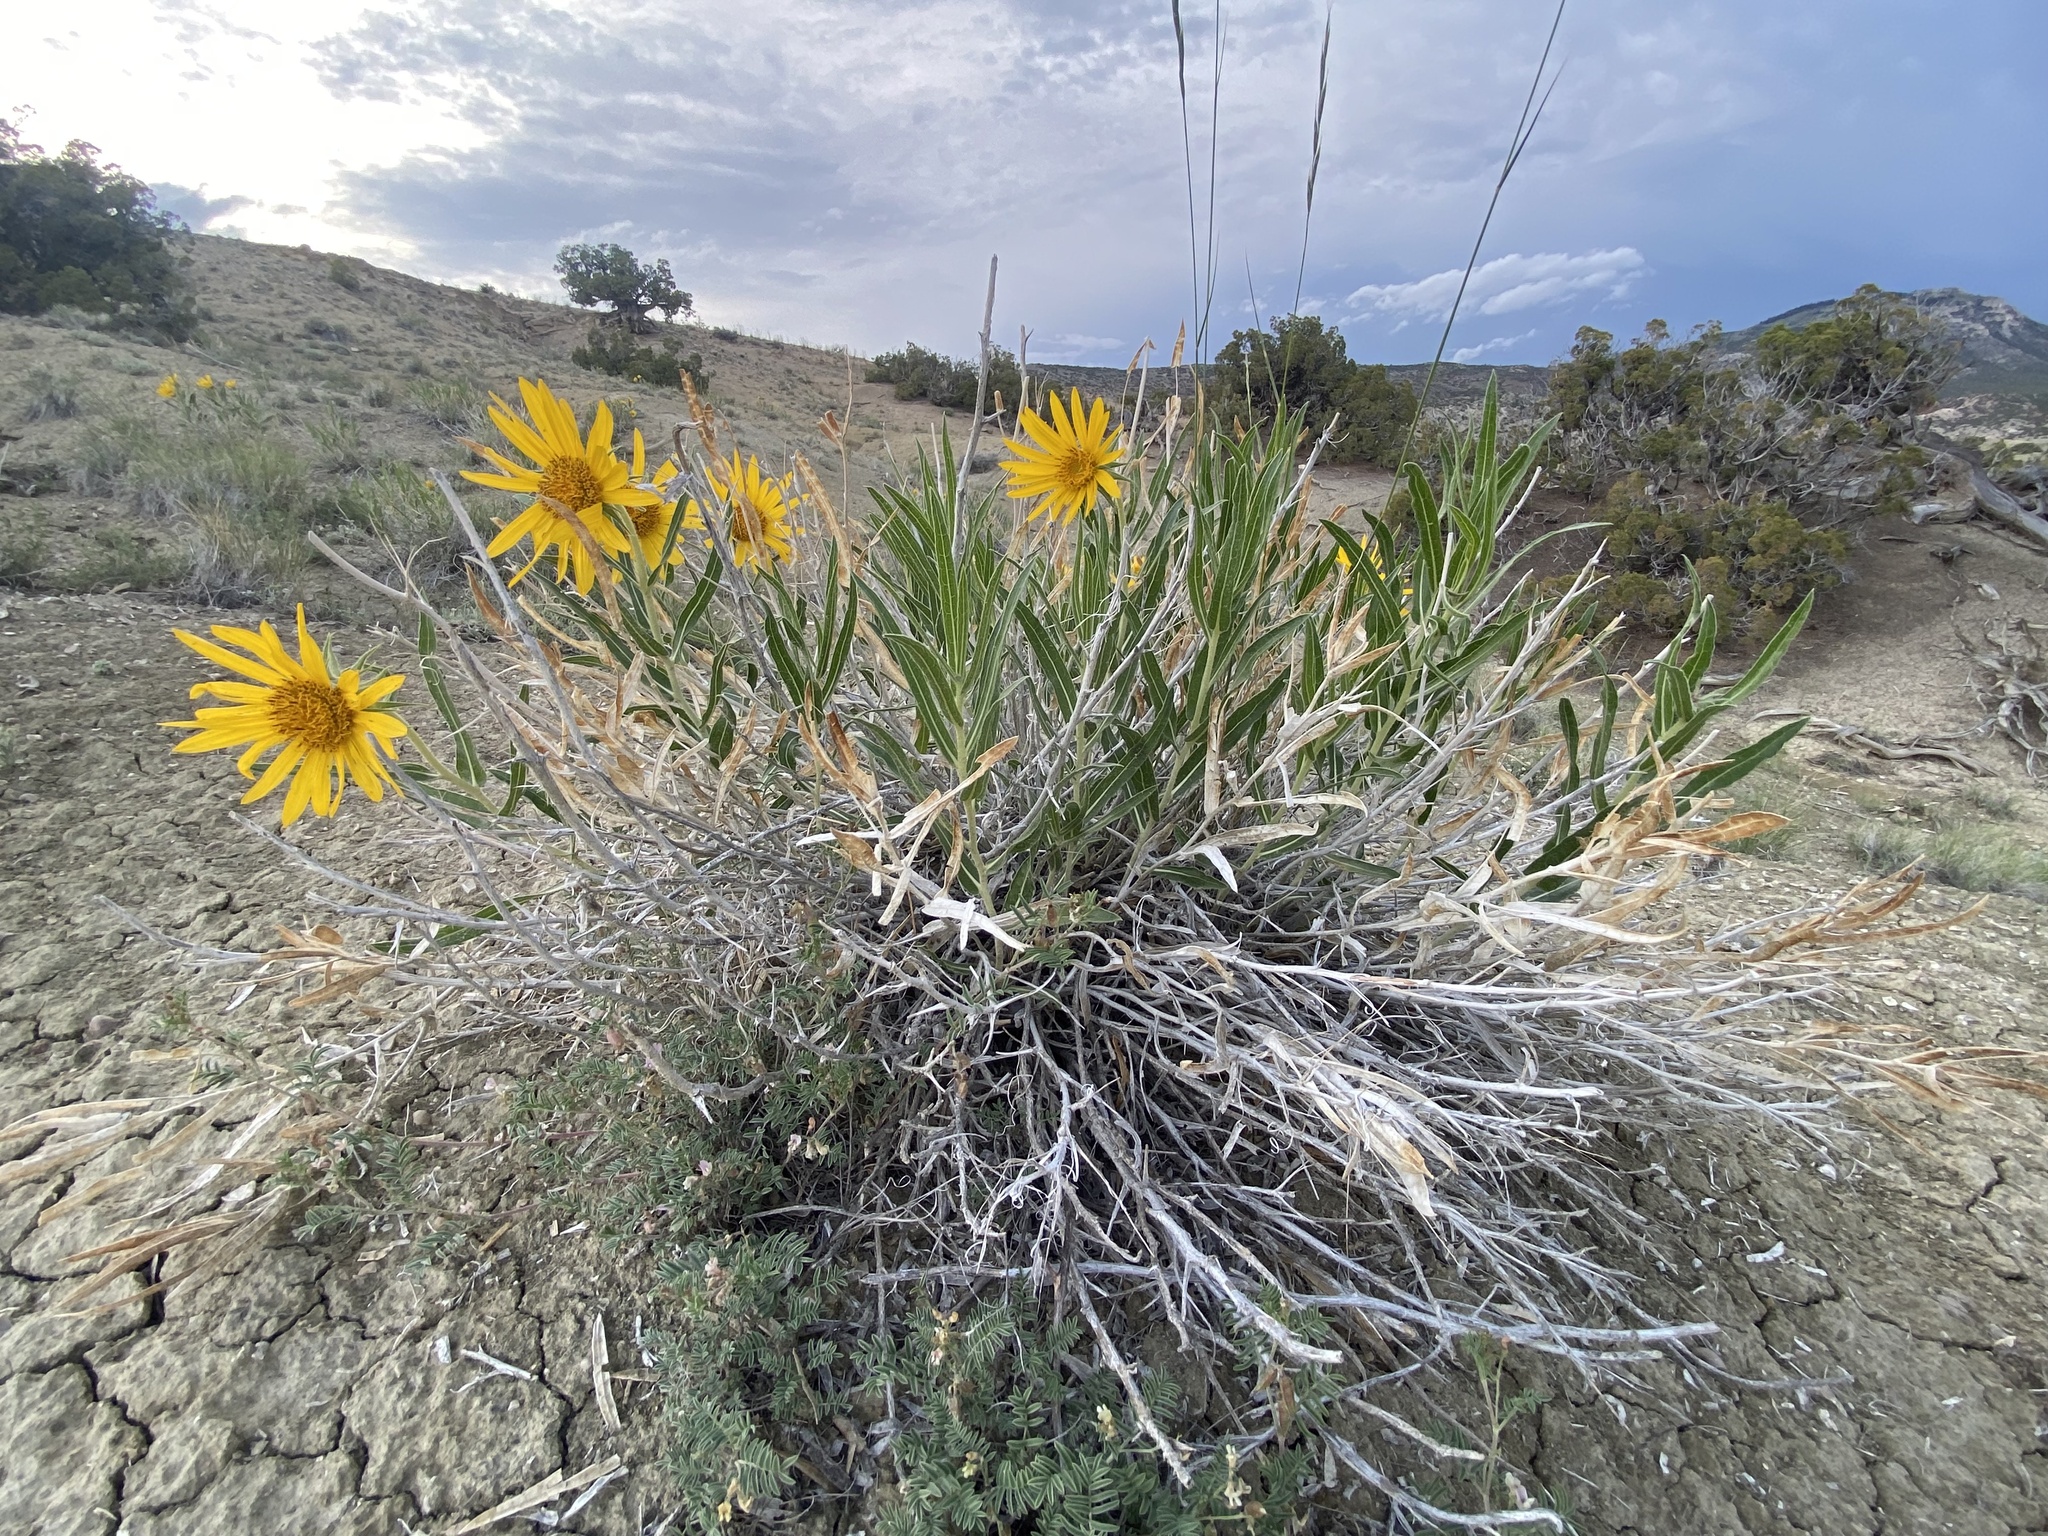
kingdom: Plantae
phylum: Tracheophyta
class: Magnoliopsida
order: Asterales
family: Asteraceae
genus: Scabrethia
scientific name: Scabrethia scabra
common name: Rough mules's-ears
